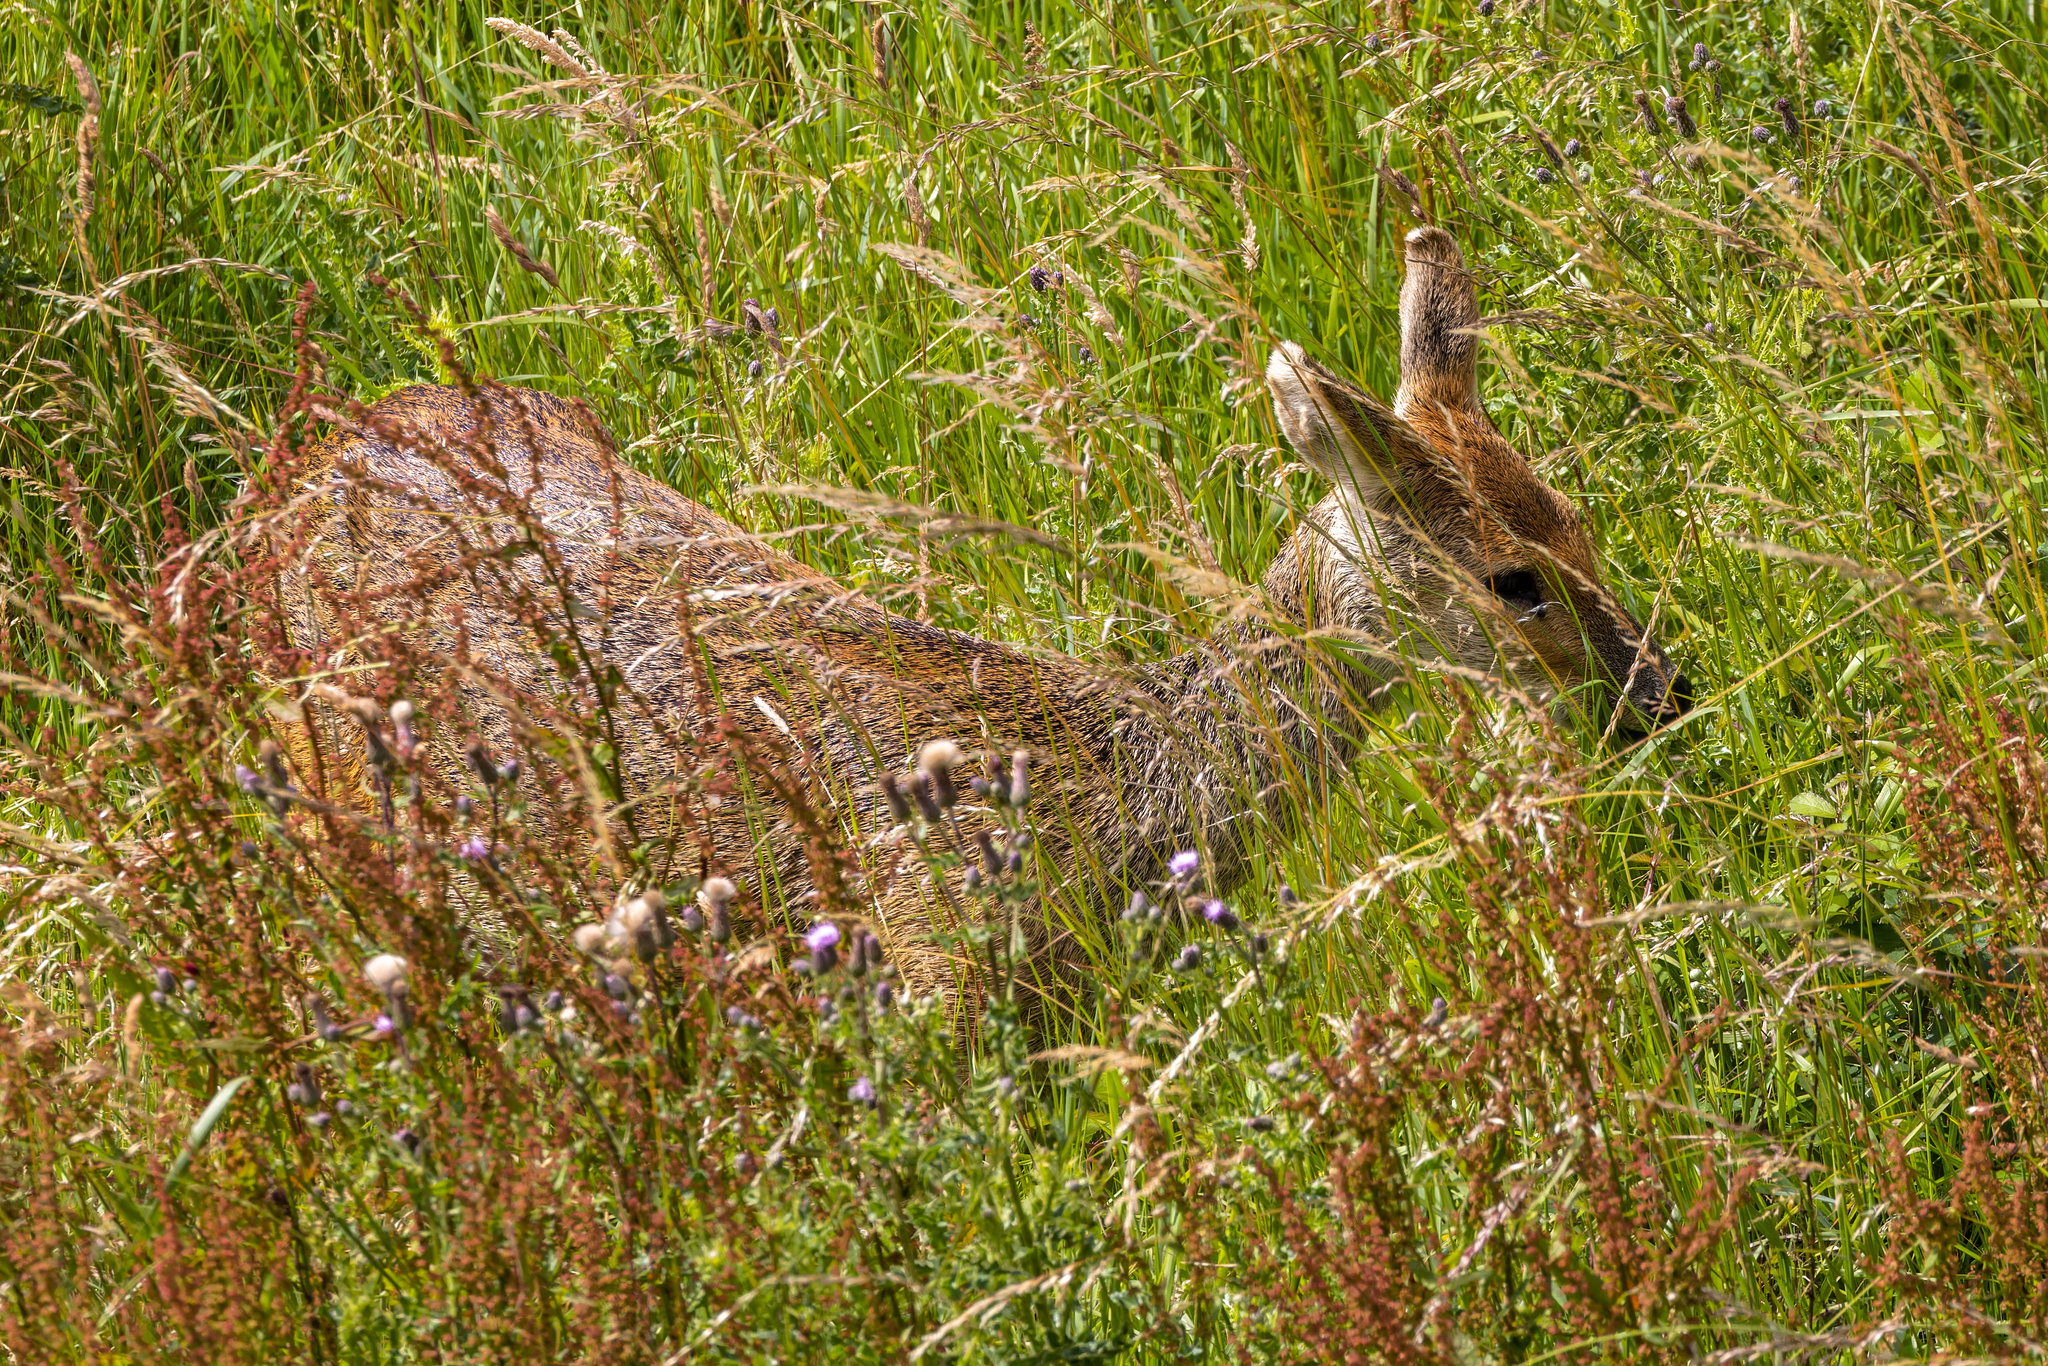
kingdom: Animalia
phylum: Chordata
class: Mammalia
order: Artiodactyla
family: Cervidae
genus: Capreolus
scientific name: Capreolus capreolus
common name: Western roe deer
